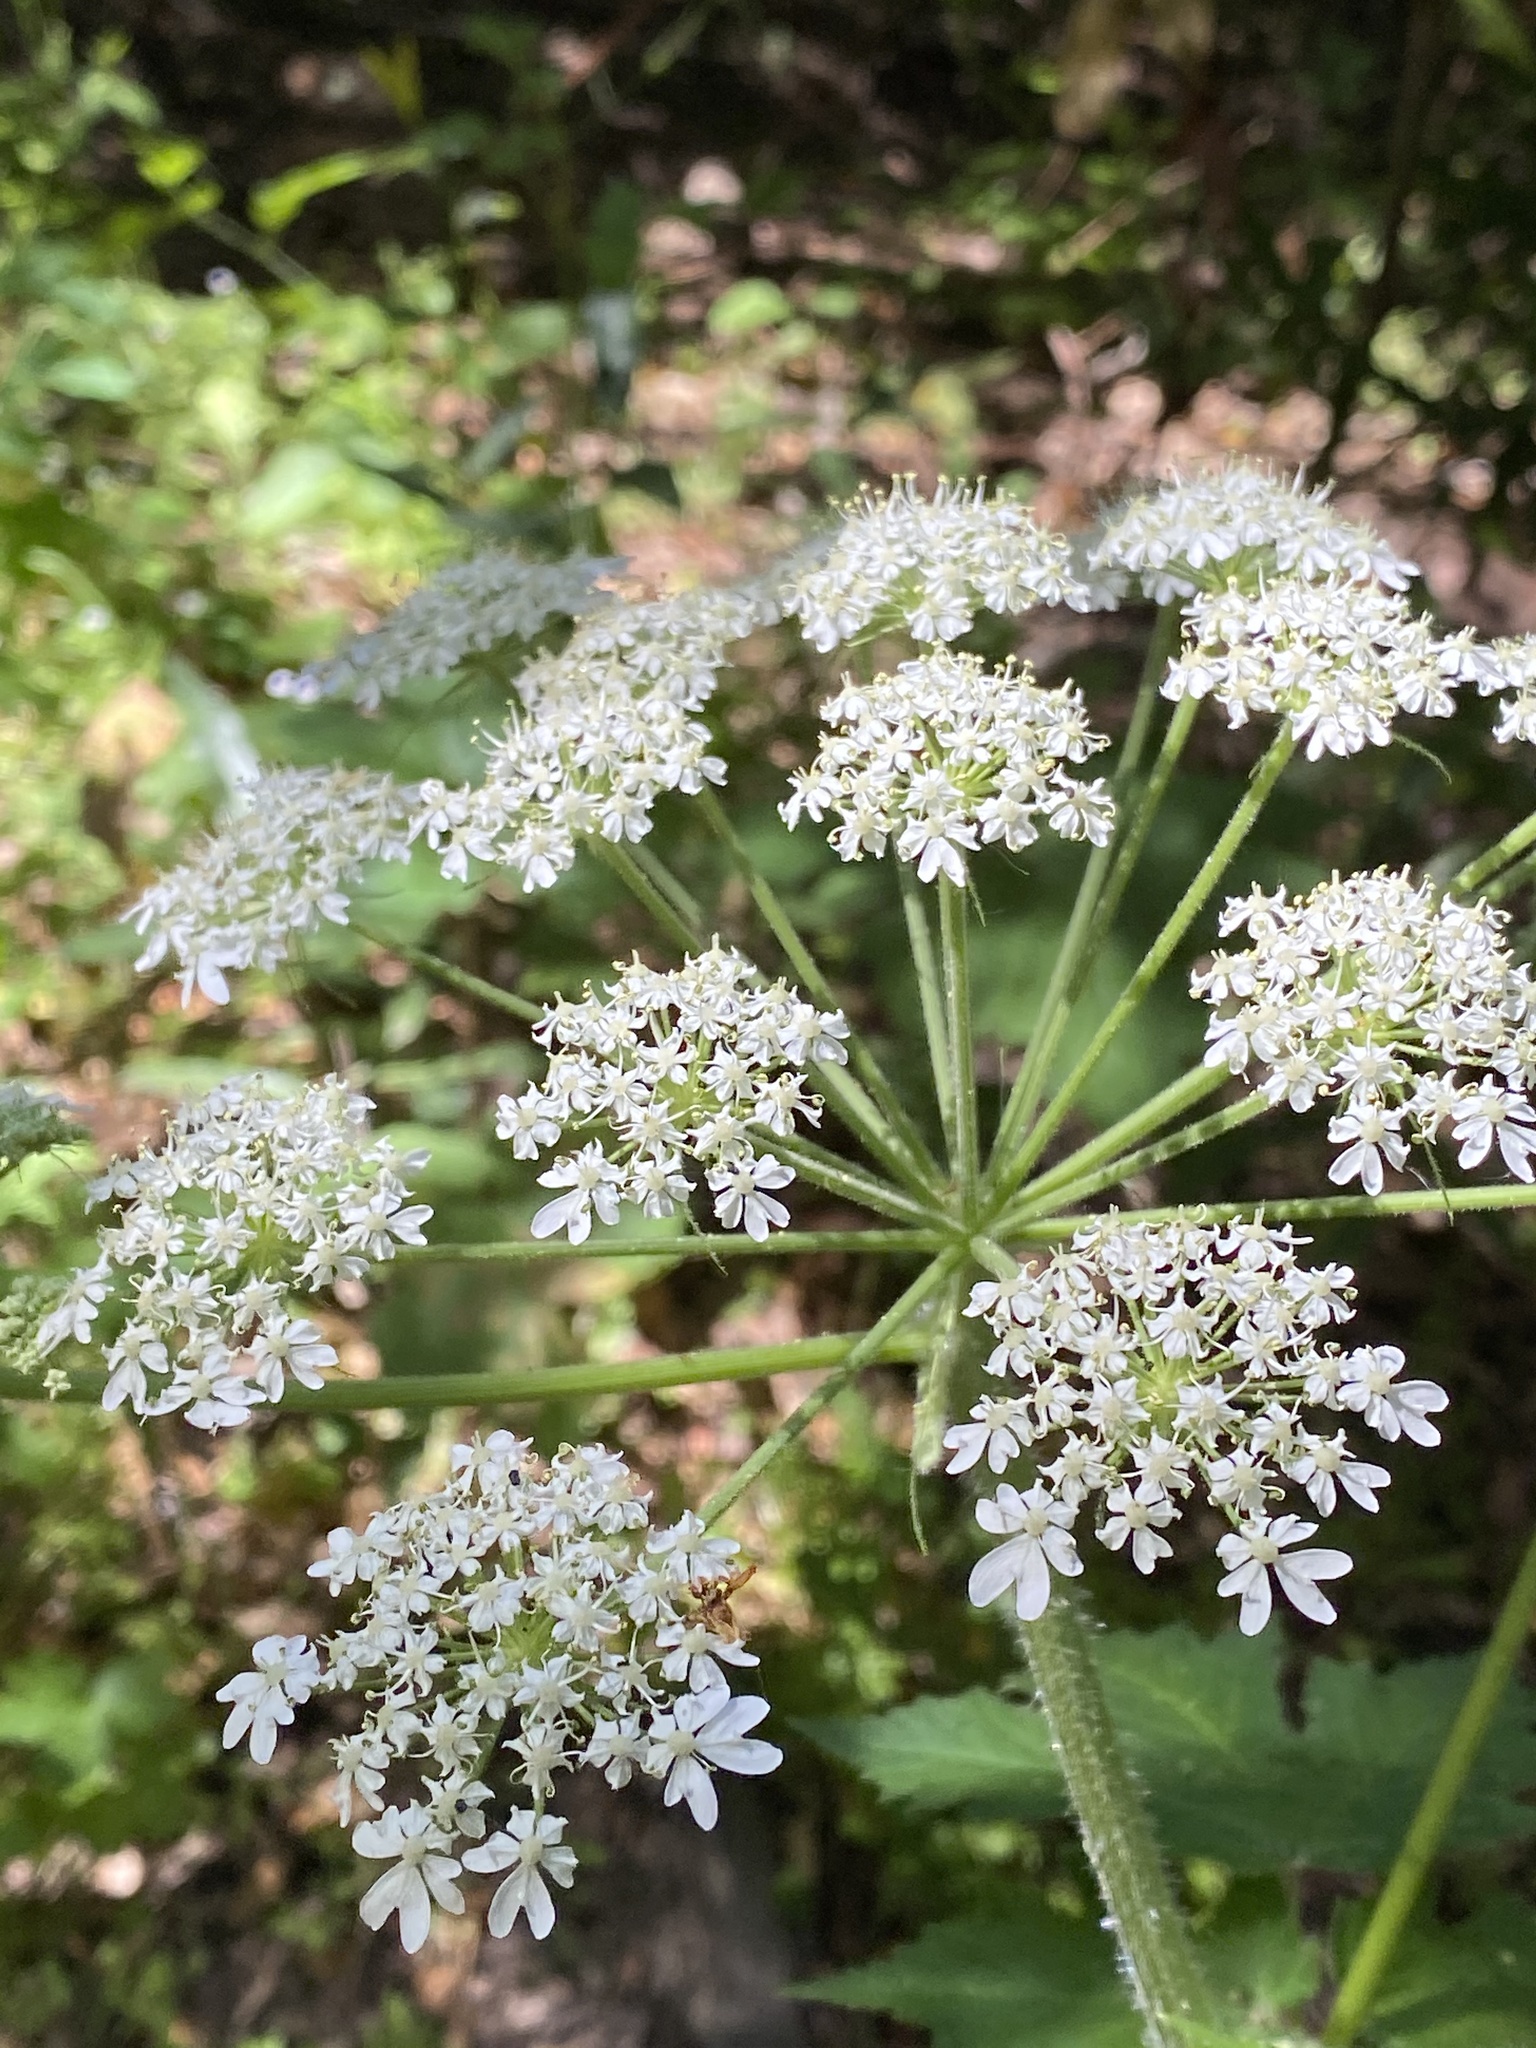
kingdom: Plantae
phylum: Tracheophyta
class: Magnoliopsida
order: Apiales
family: Apiaceae
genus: Heracleum
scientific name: Heracleum maximum
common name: American cow parsnip
